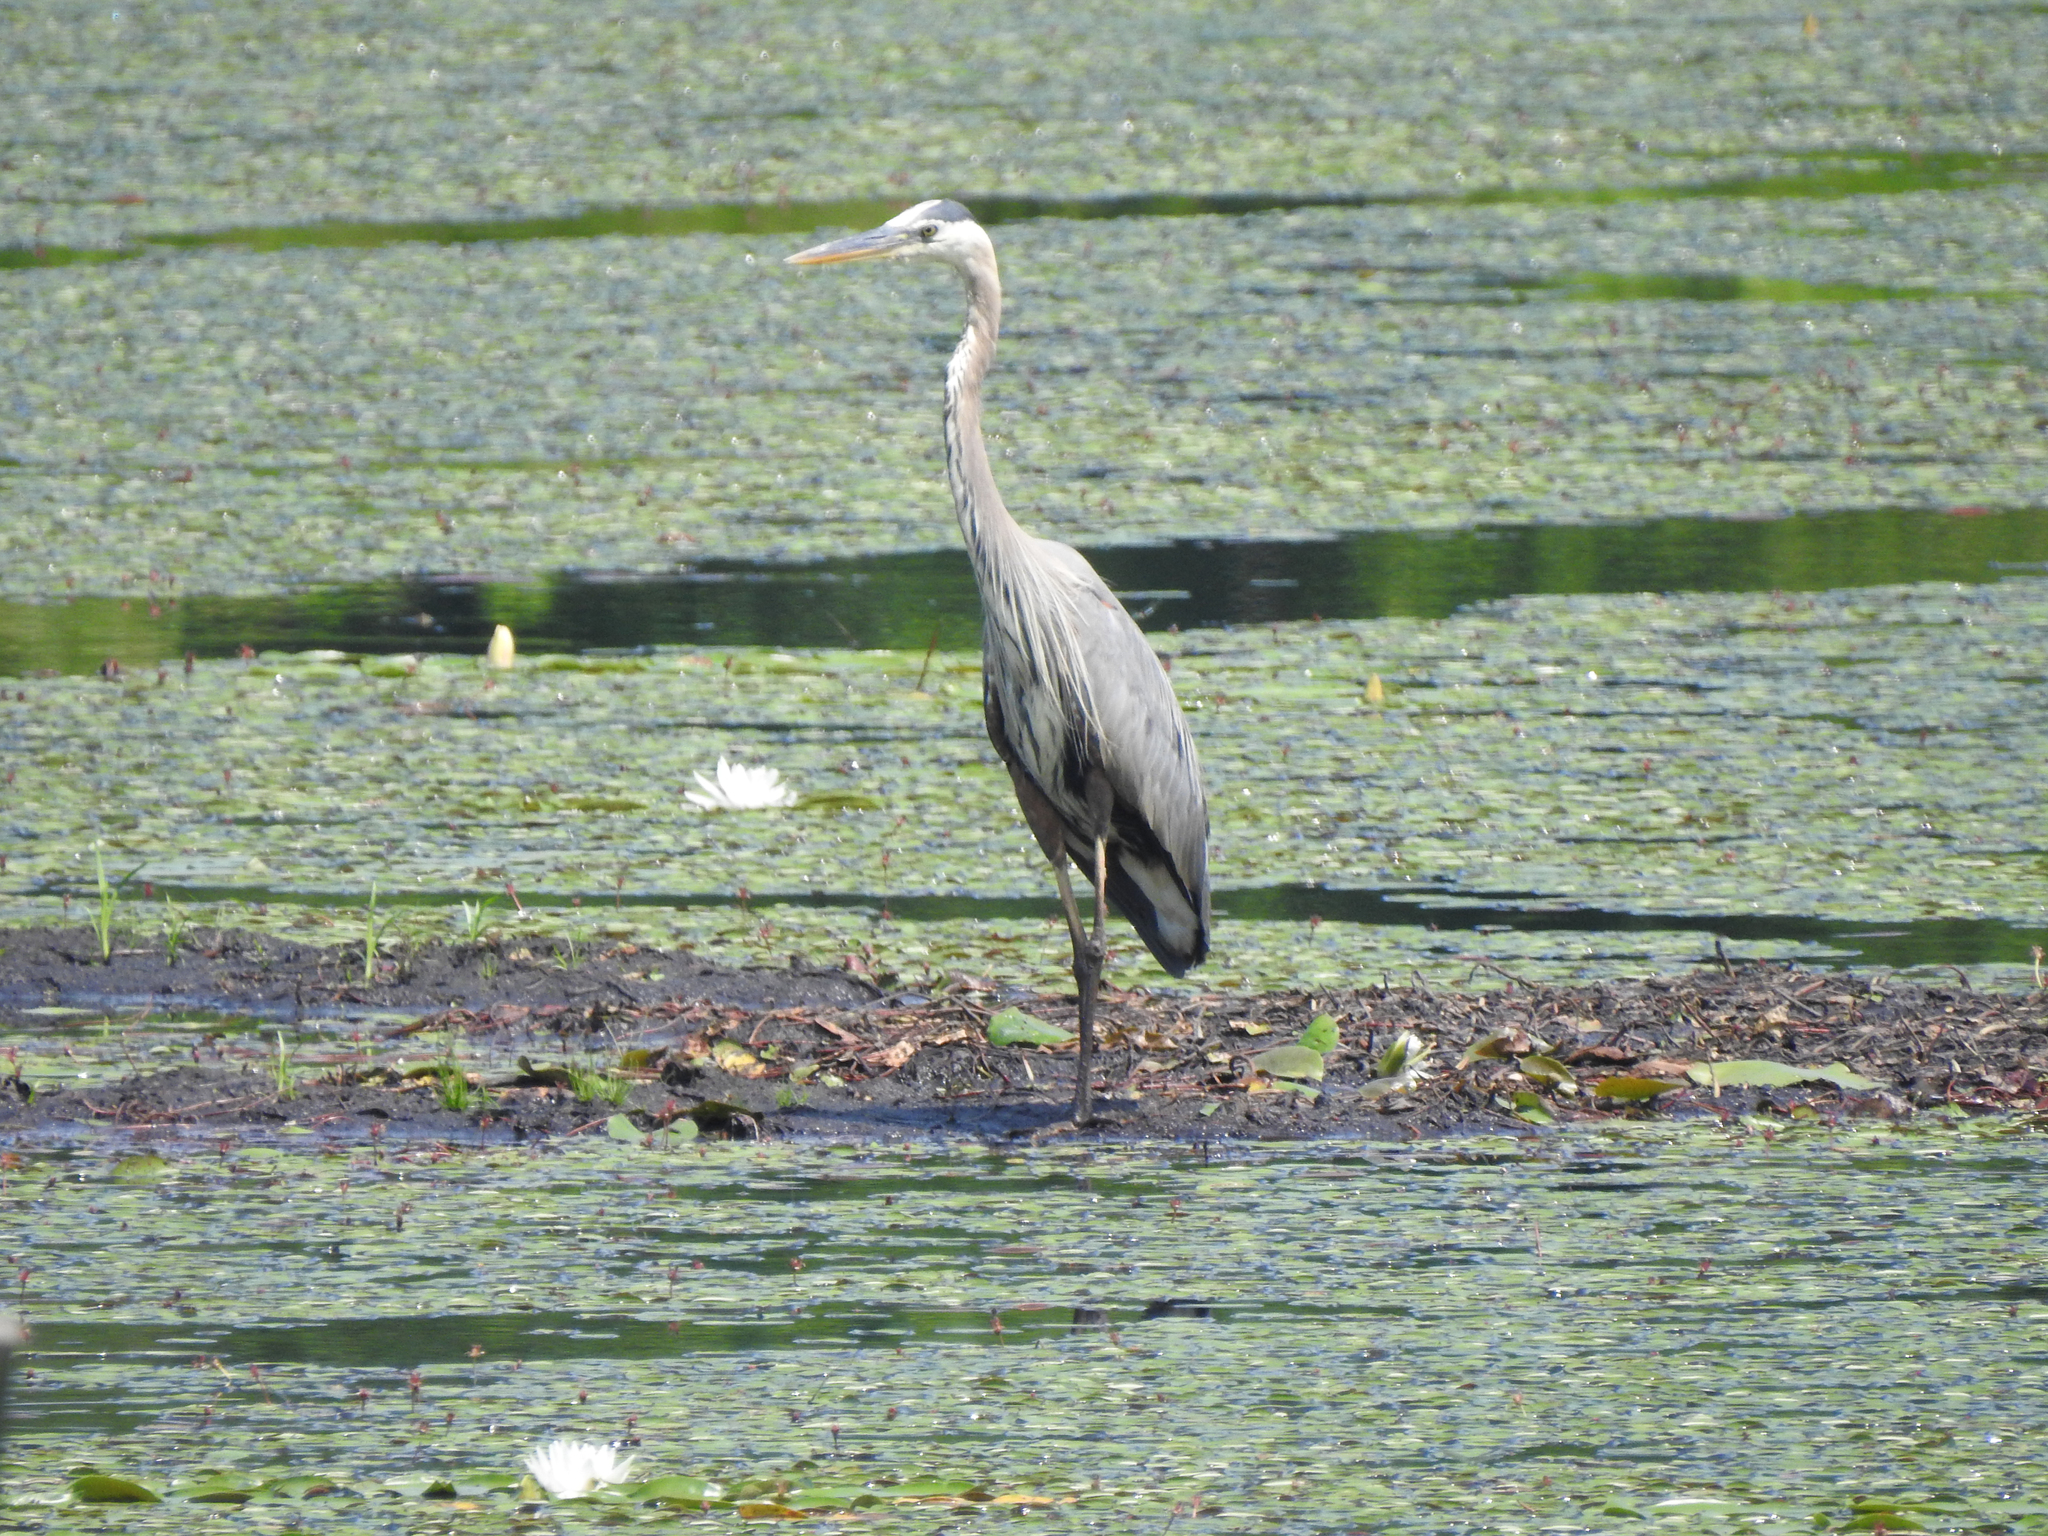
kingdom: Animalia
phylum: Chordata
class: Aves
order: Pelecaniformes
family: Ardeidae
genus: Ardea
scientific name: Ardea herodias
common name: Great blue heron
